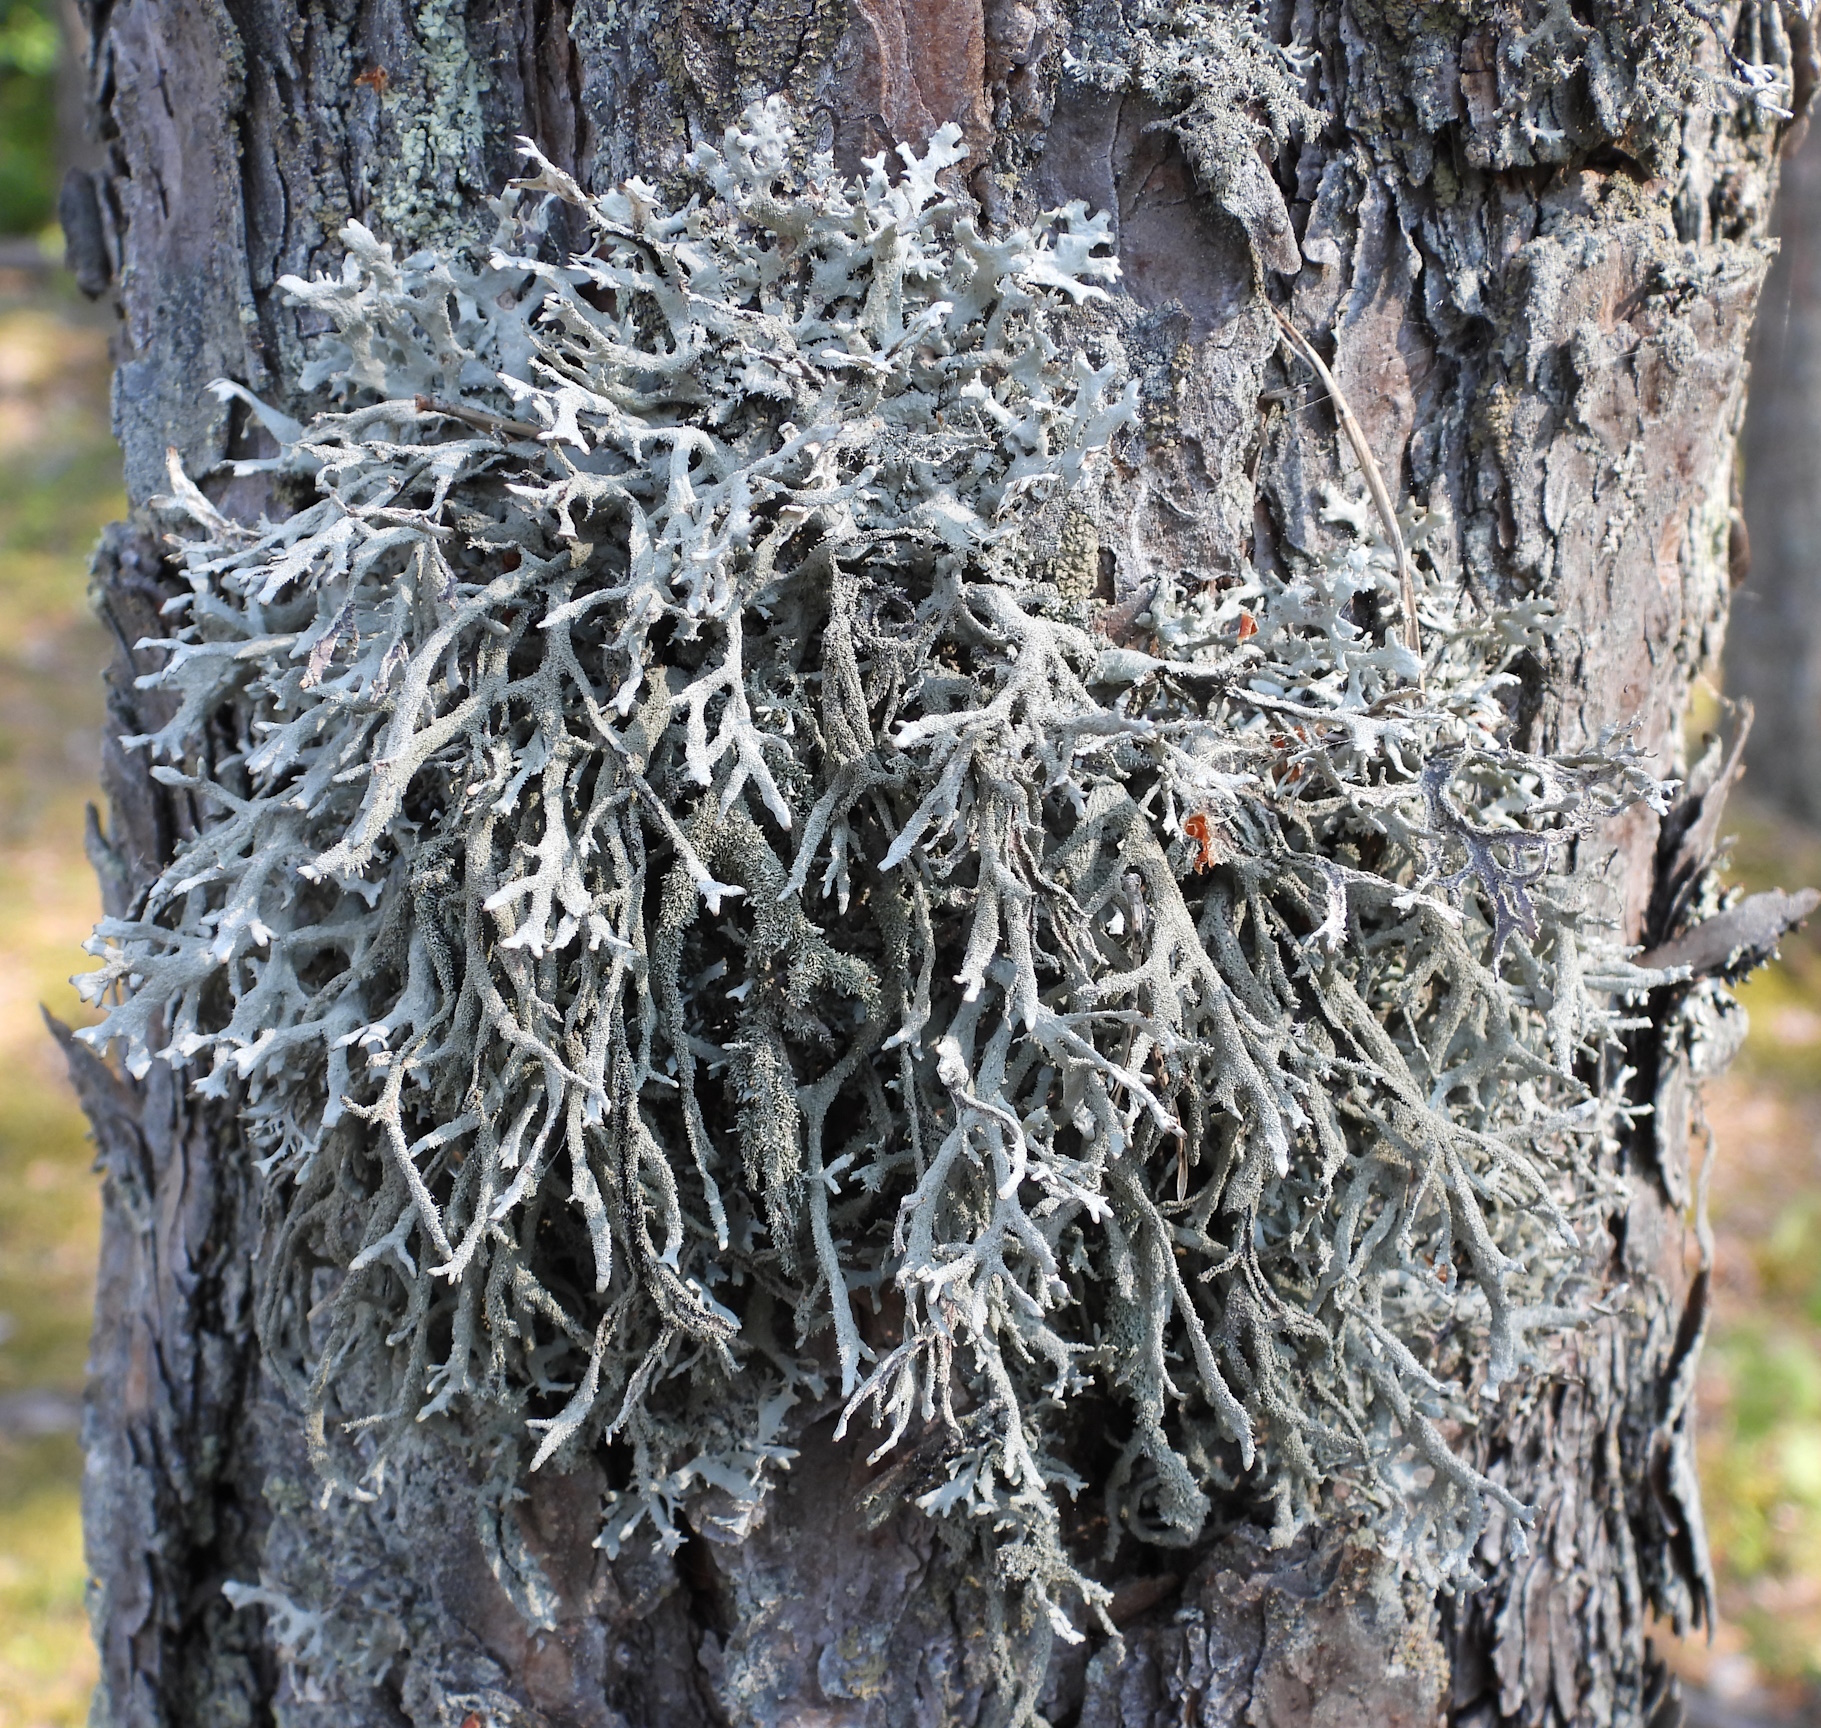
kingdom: Fungi
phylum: Ascomycota
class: Lecanoromycetes
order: Lecanorales
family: Parmeliaceae
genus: Pseudevernia
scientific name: Pseudevernia furfuracea
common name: Tree moss
